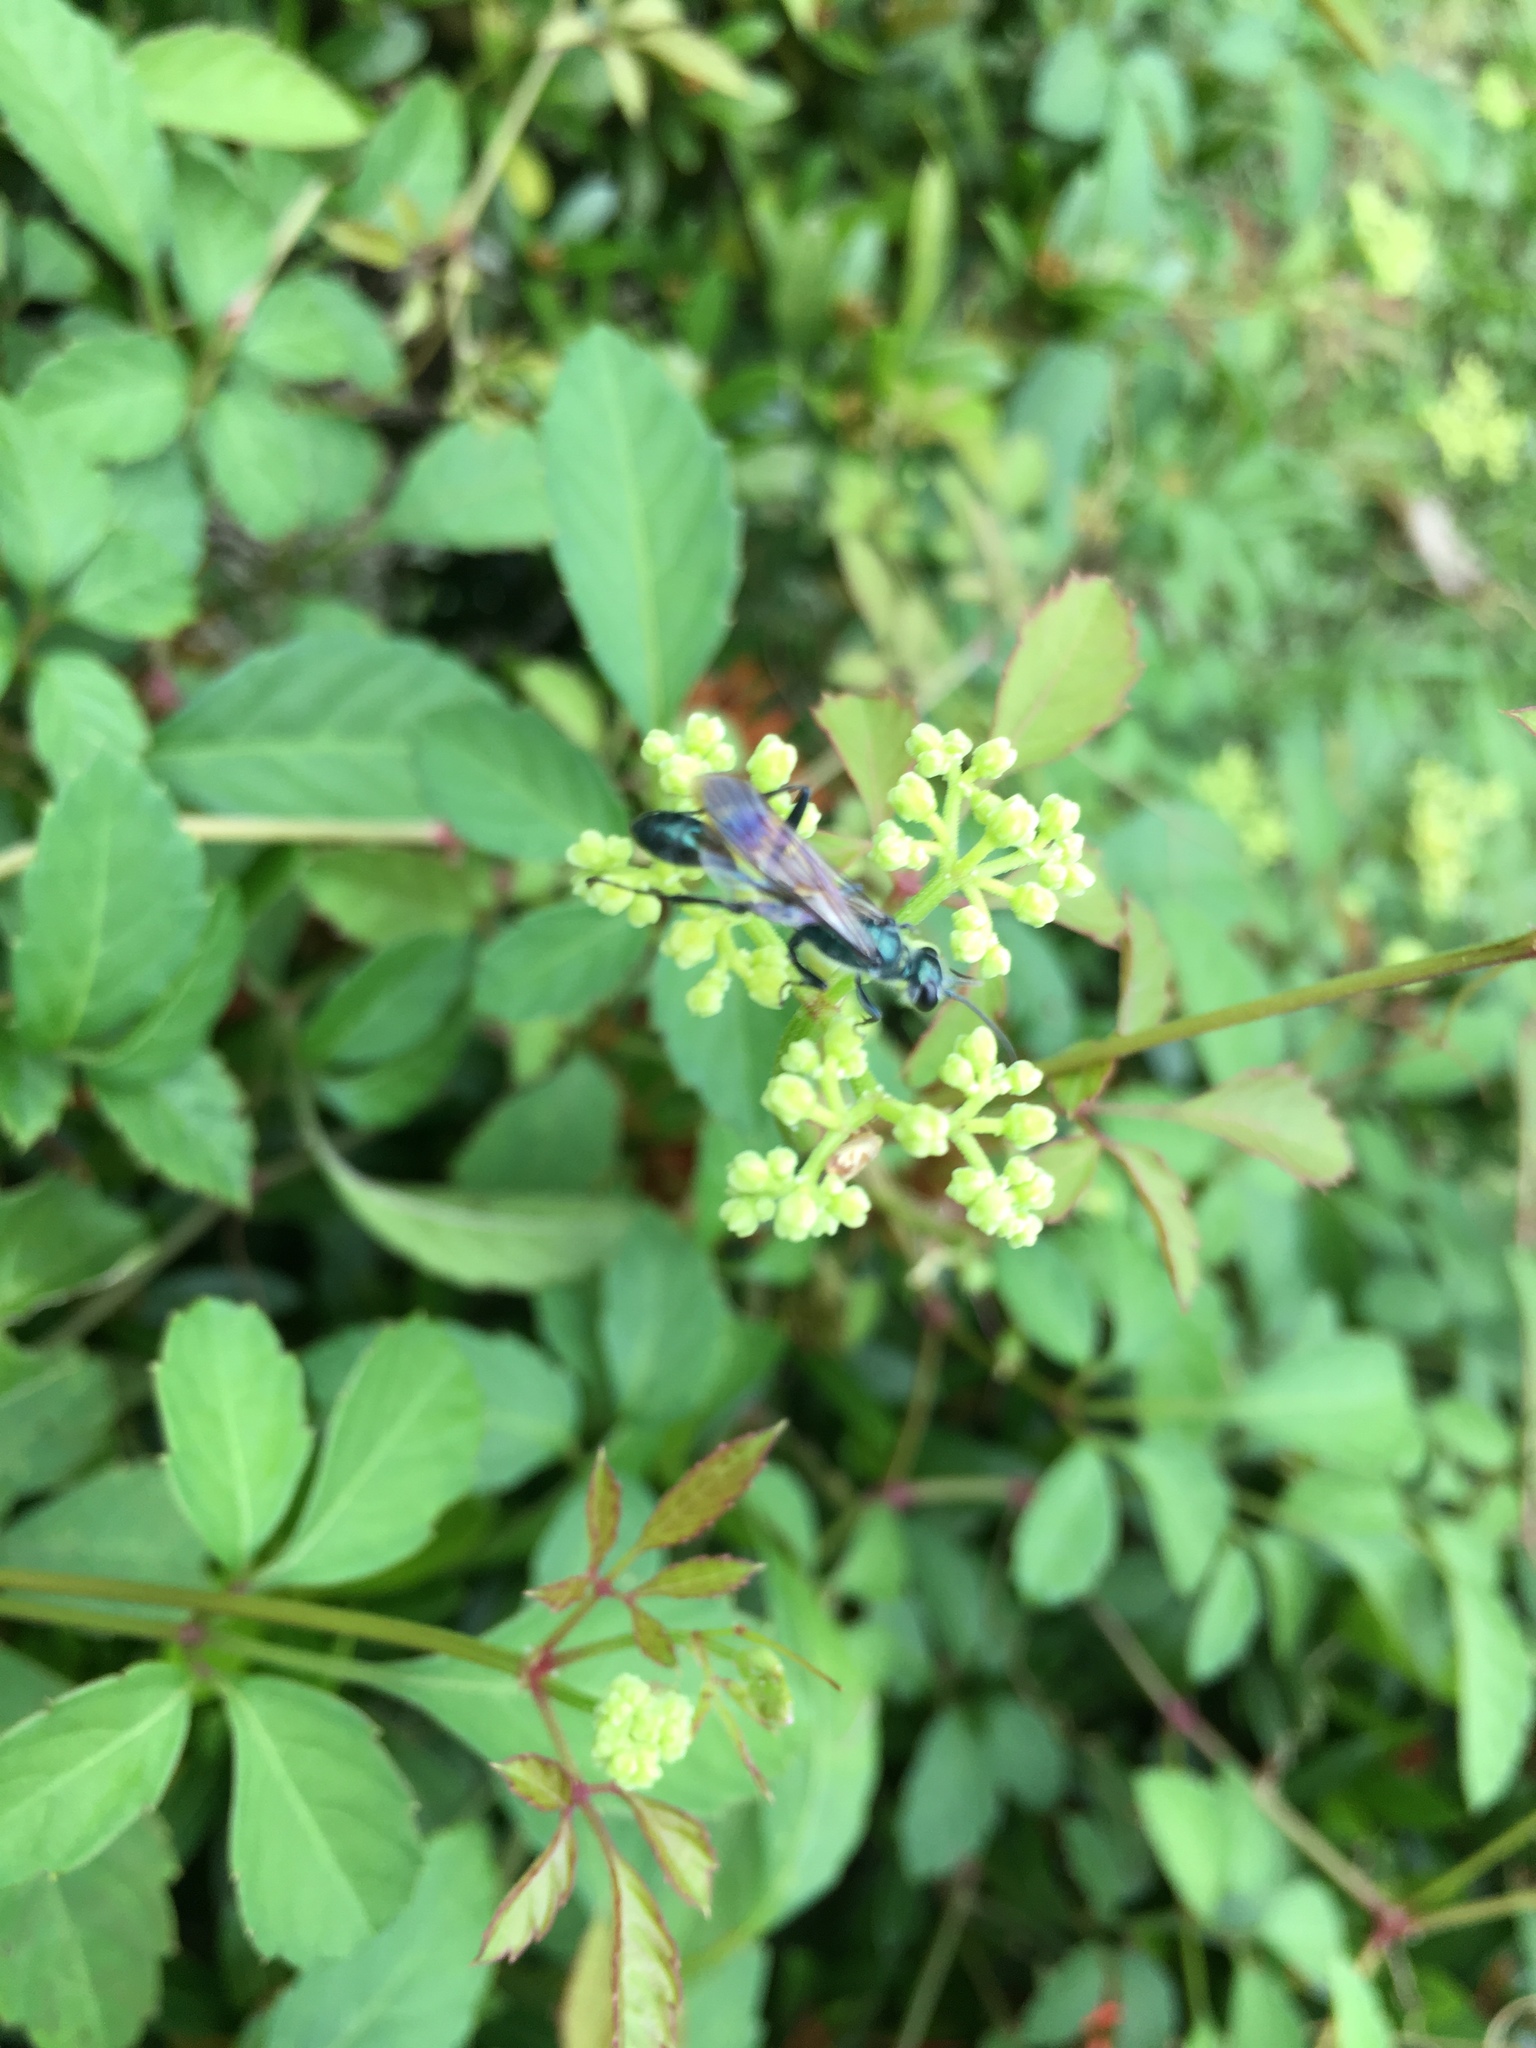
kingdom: Animalia
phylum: Arthropoda
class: Insecta
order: Hymenoptera
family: Sphecidae
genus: Chalybion
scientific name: Chalybion japonicum
